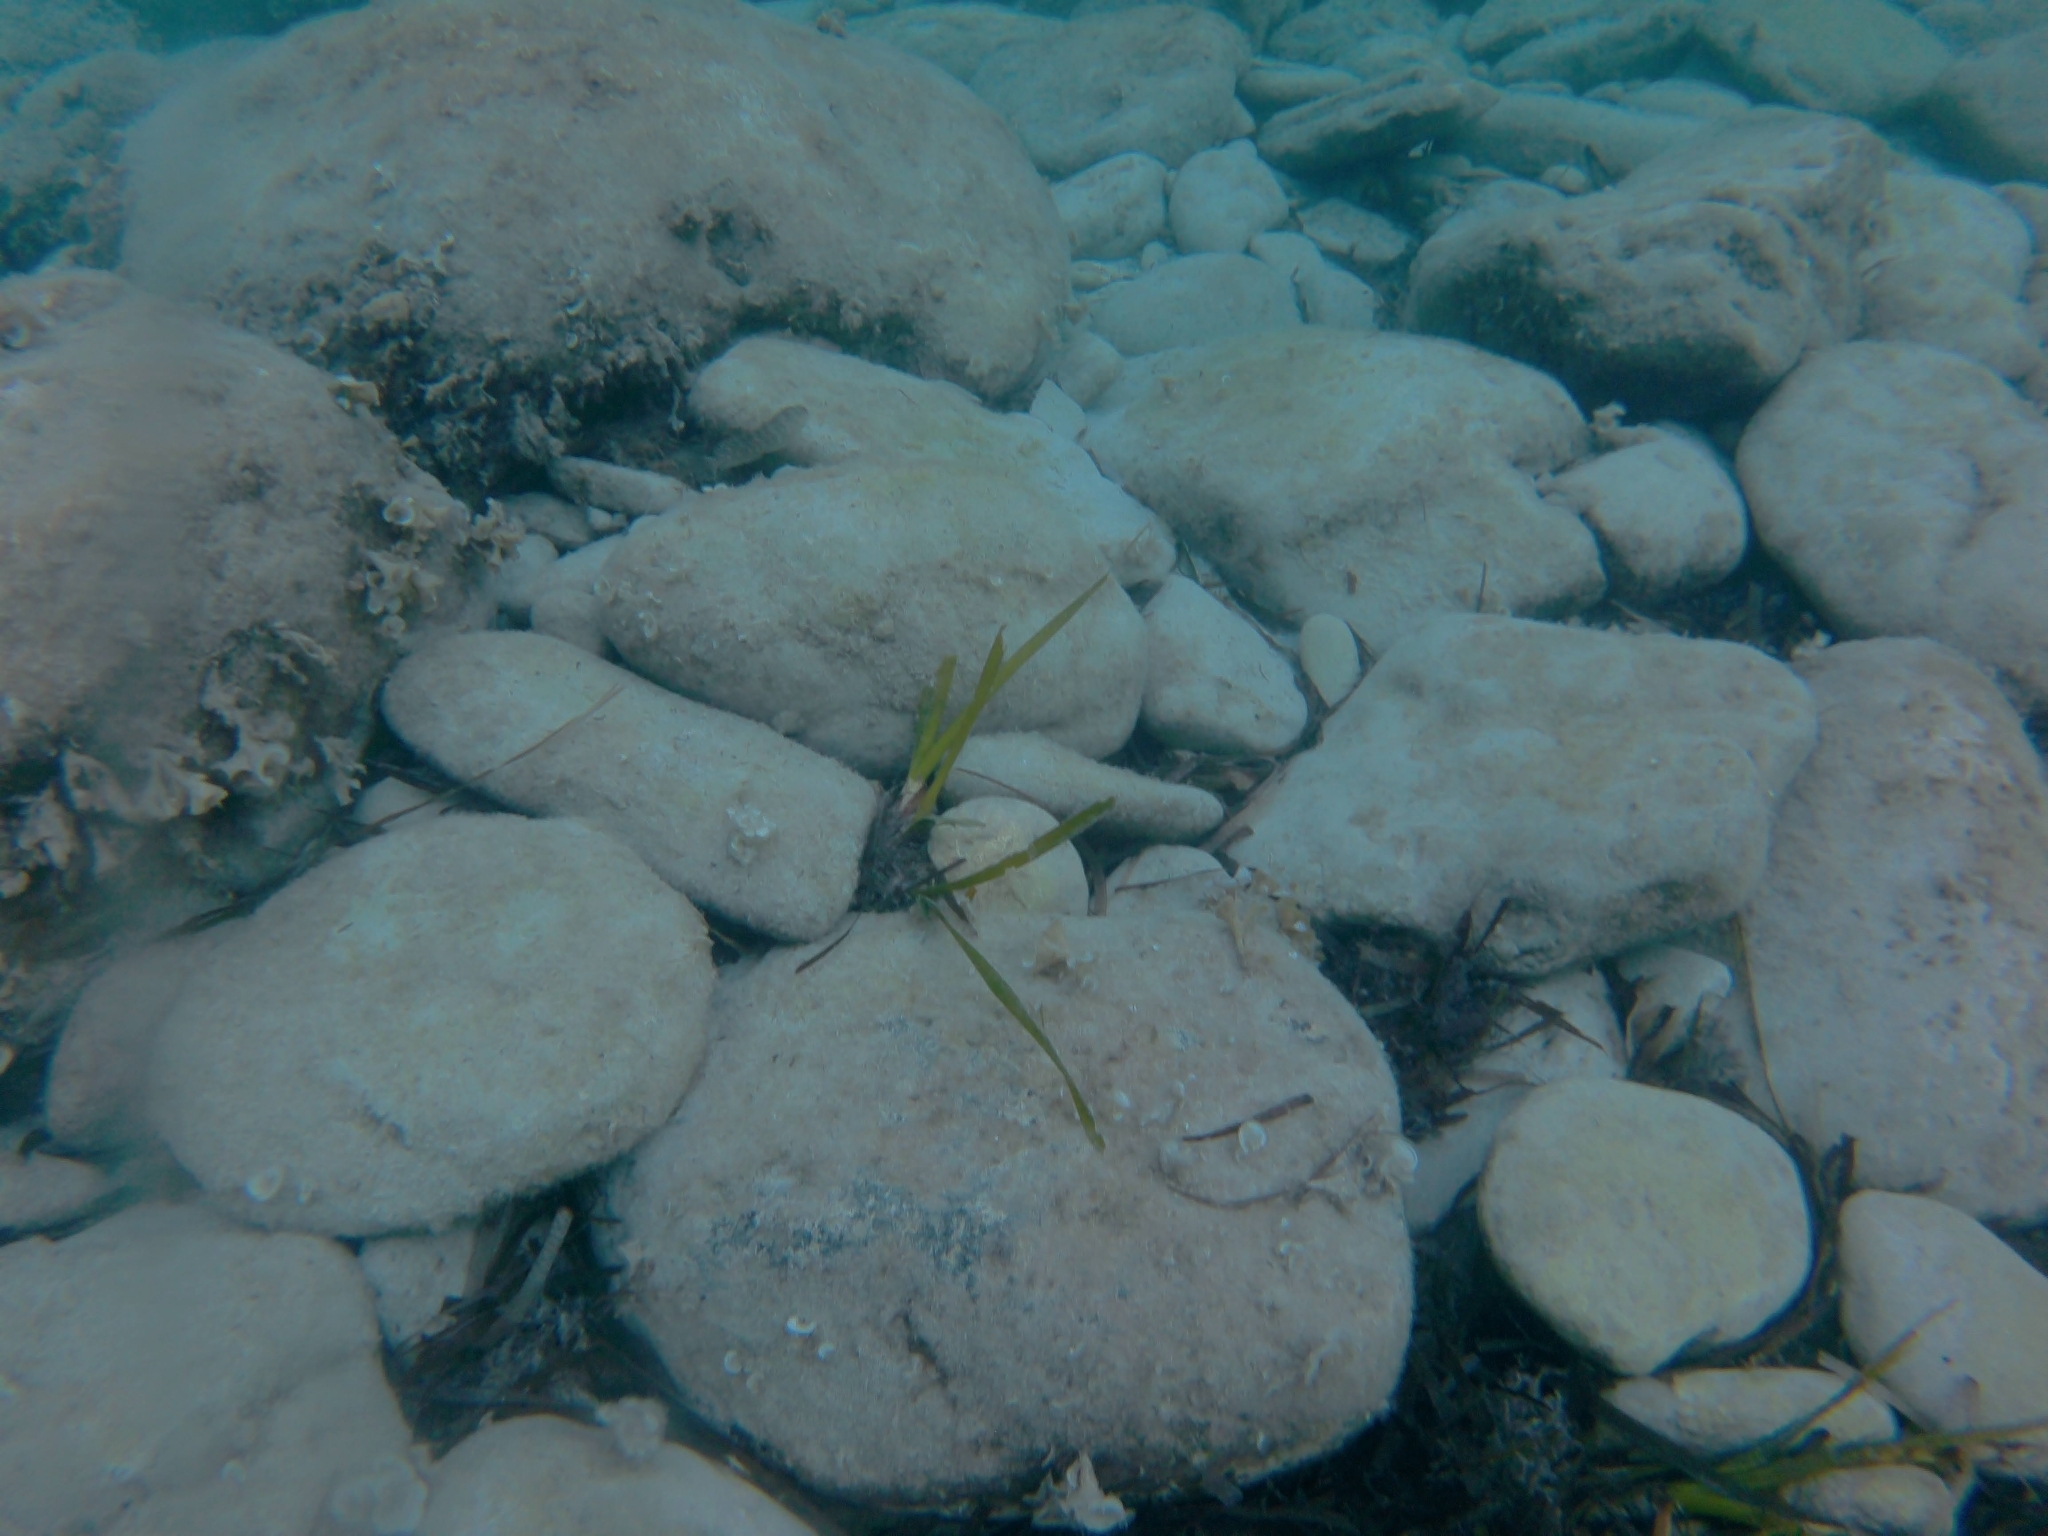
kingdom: Plantae
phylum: Tracheophyta
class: Liliopsida
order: Alismatales
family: Posidoniaceae
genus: Posidonia
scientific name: Posidonia oceanica
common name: Mediterranean tapeweed
